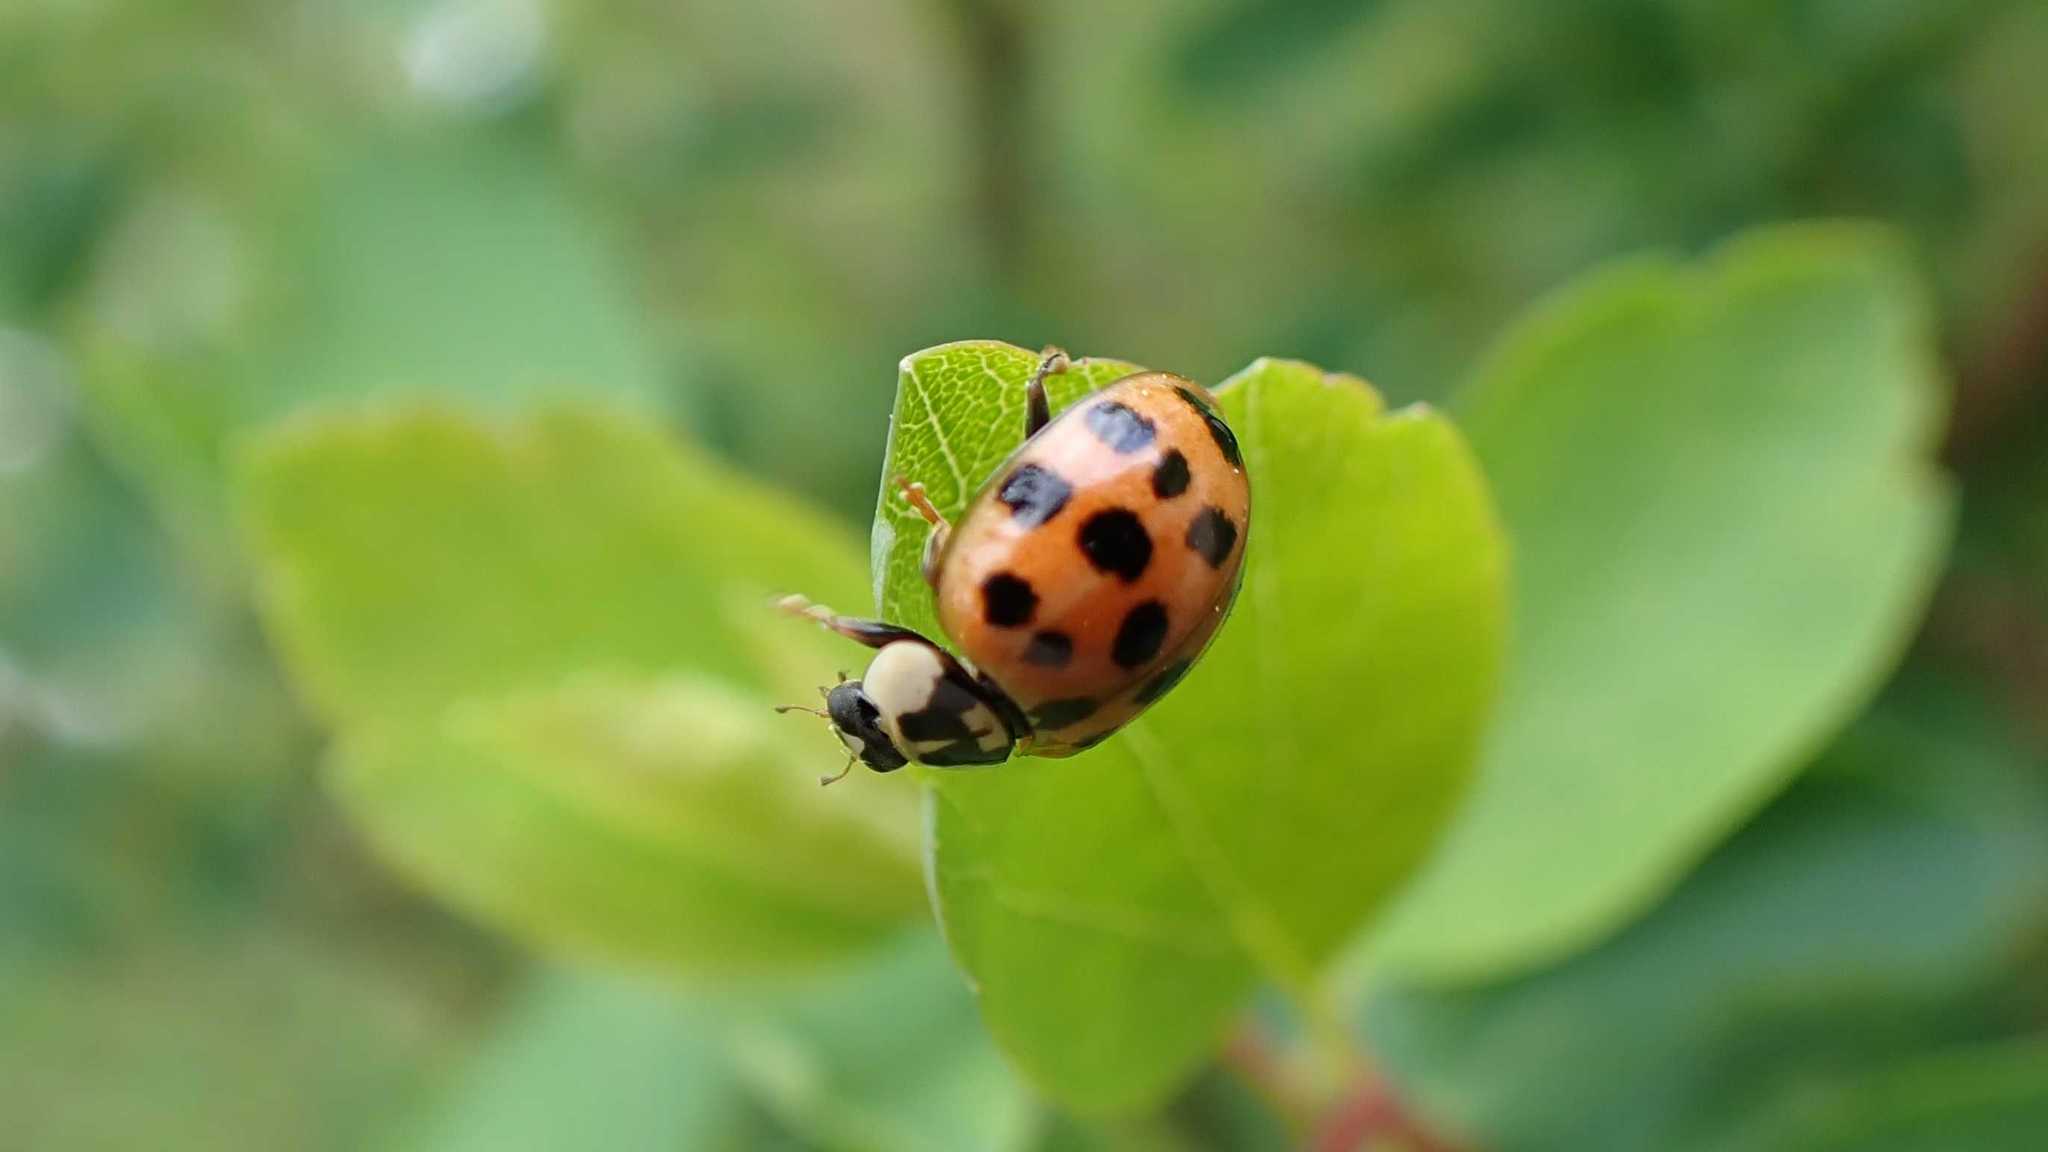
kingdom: Animalia
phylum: Arthropoda
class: Insecta
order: Coleoptera
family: Coccinellidae
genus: Harmonia
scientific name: Harmonia axyridis
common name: Harlequin ladybird
